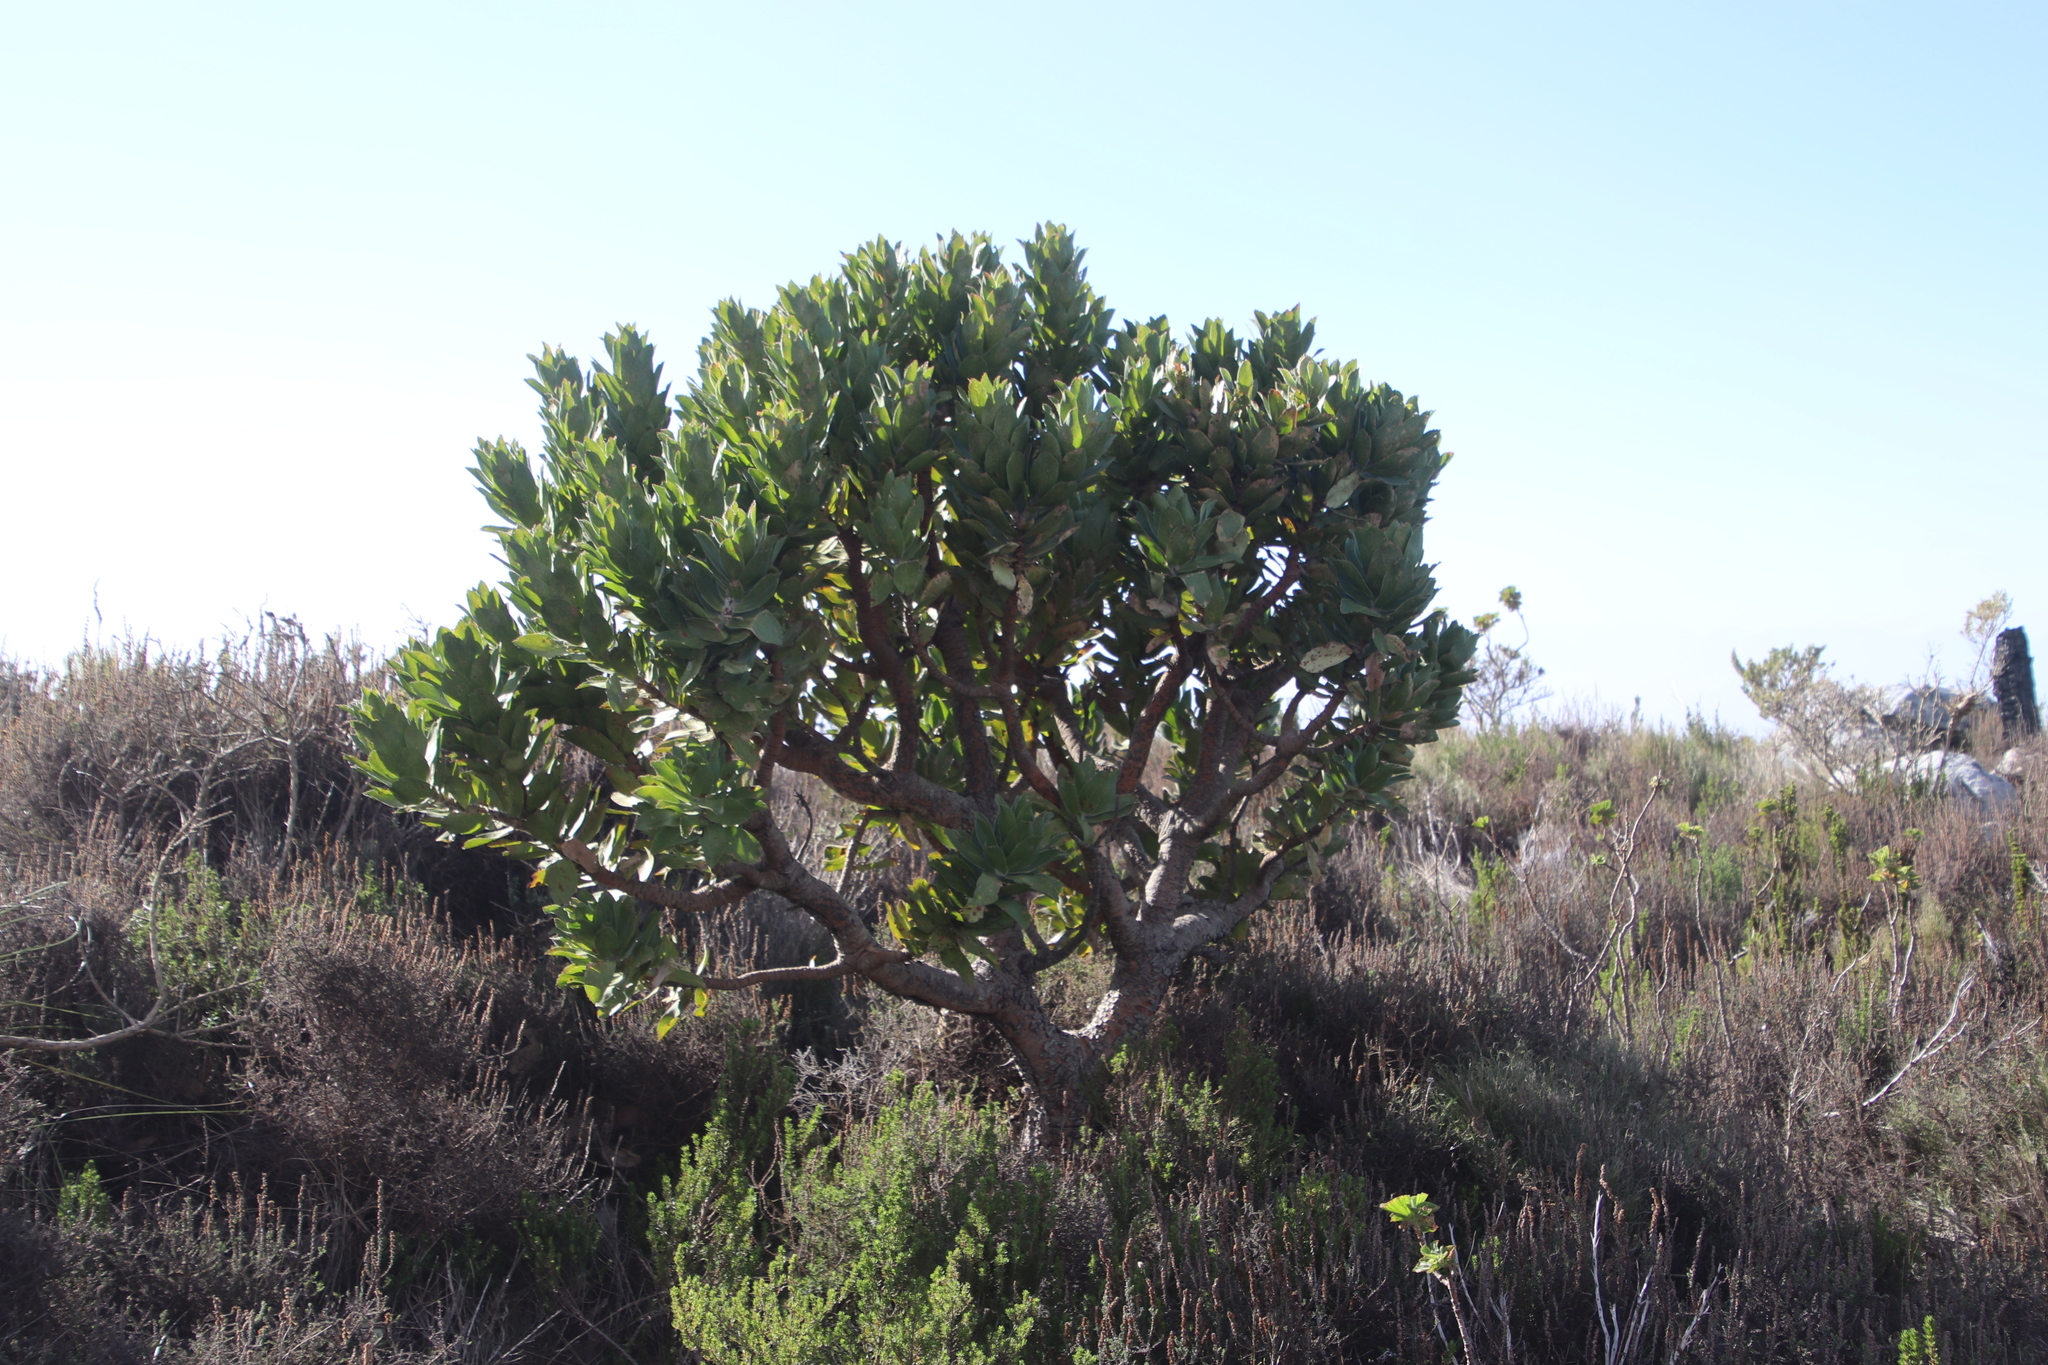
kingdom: Plantae
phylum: Tracheophyta
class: Magnoliopsida
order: Proteales
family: Proteaceae
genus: Leucospermum
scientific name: Leucospermum conocarpodendron
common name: Tree pincushion
